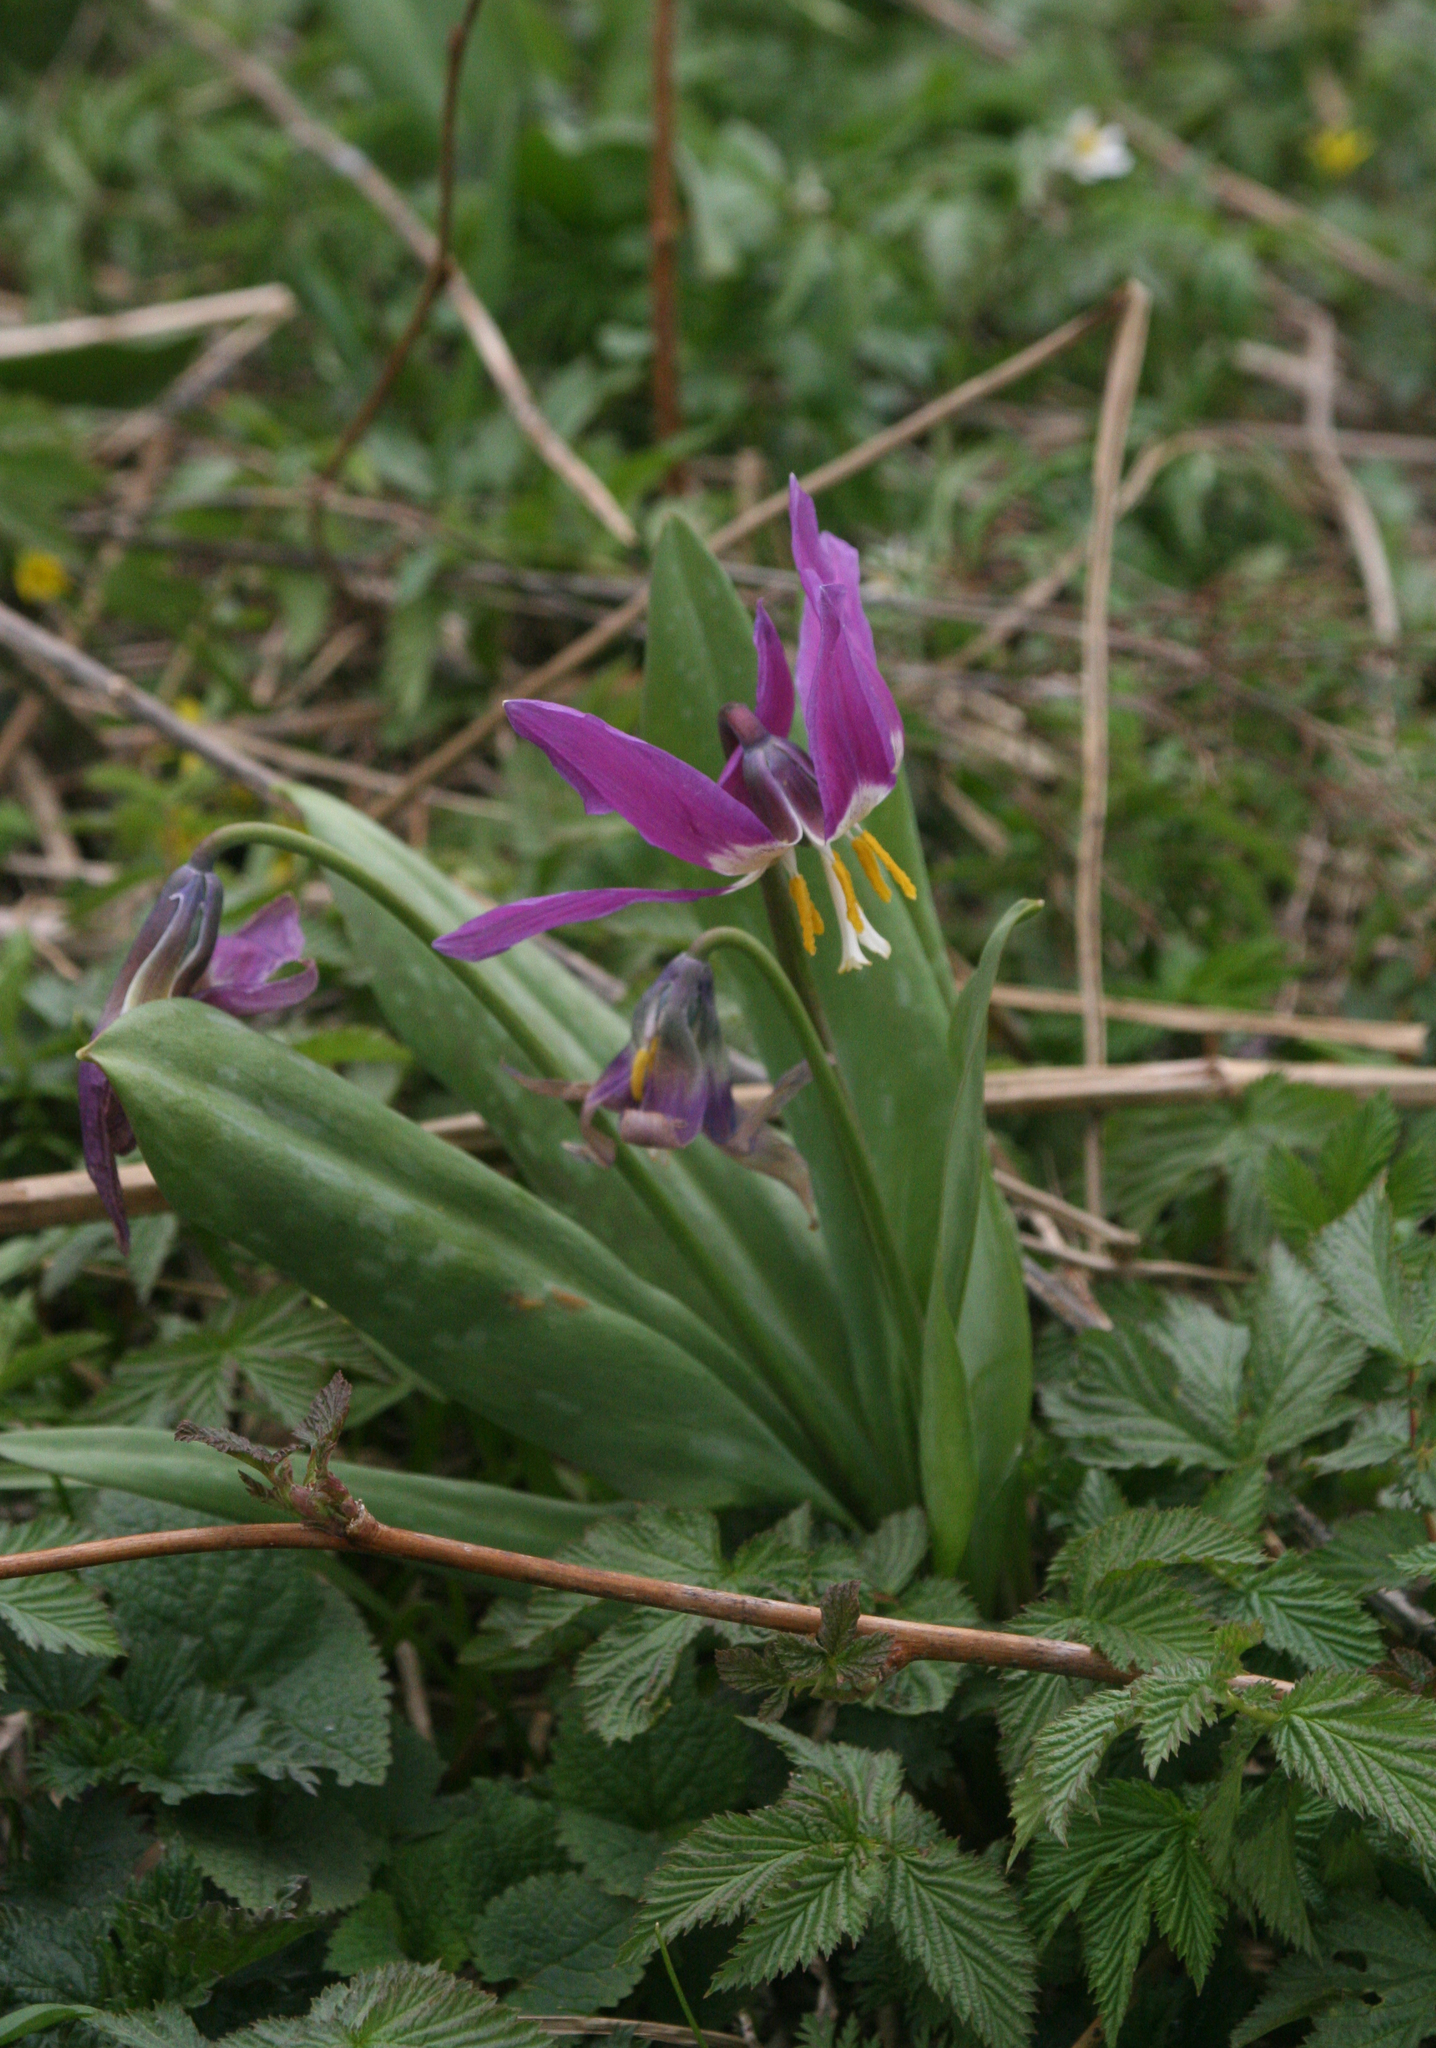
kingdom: Plantae
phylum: Tracheophyta
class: Liliopsida
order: Liliales
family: Liliaceae
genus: Erythronium
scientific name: Erythronium sibiricum
